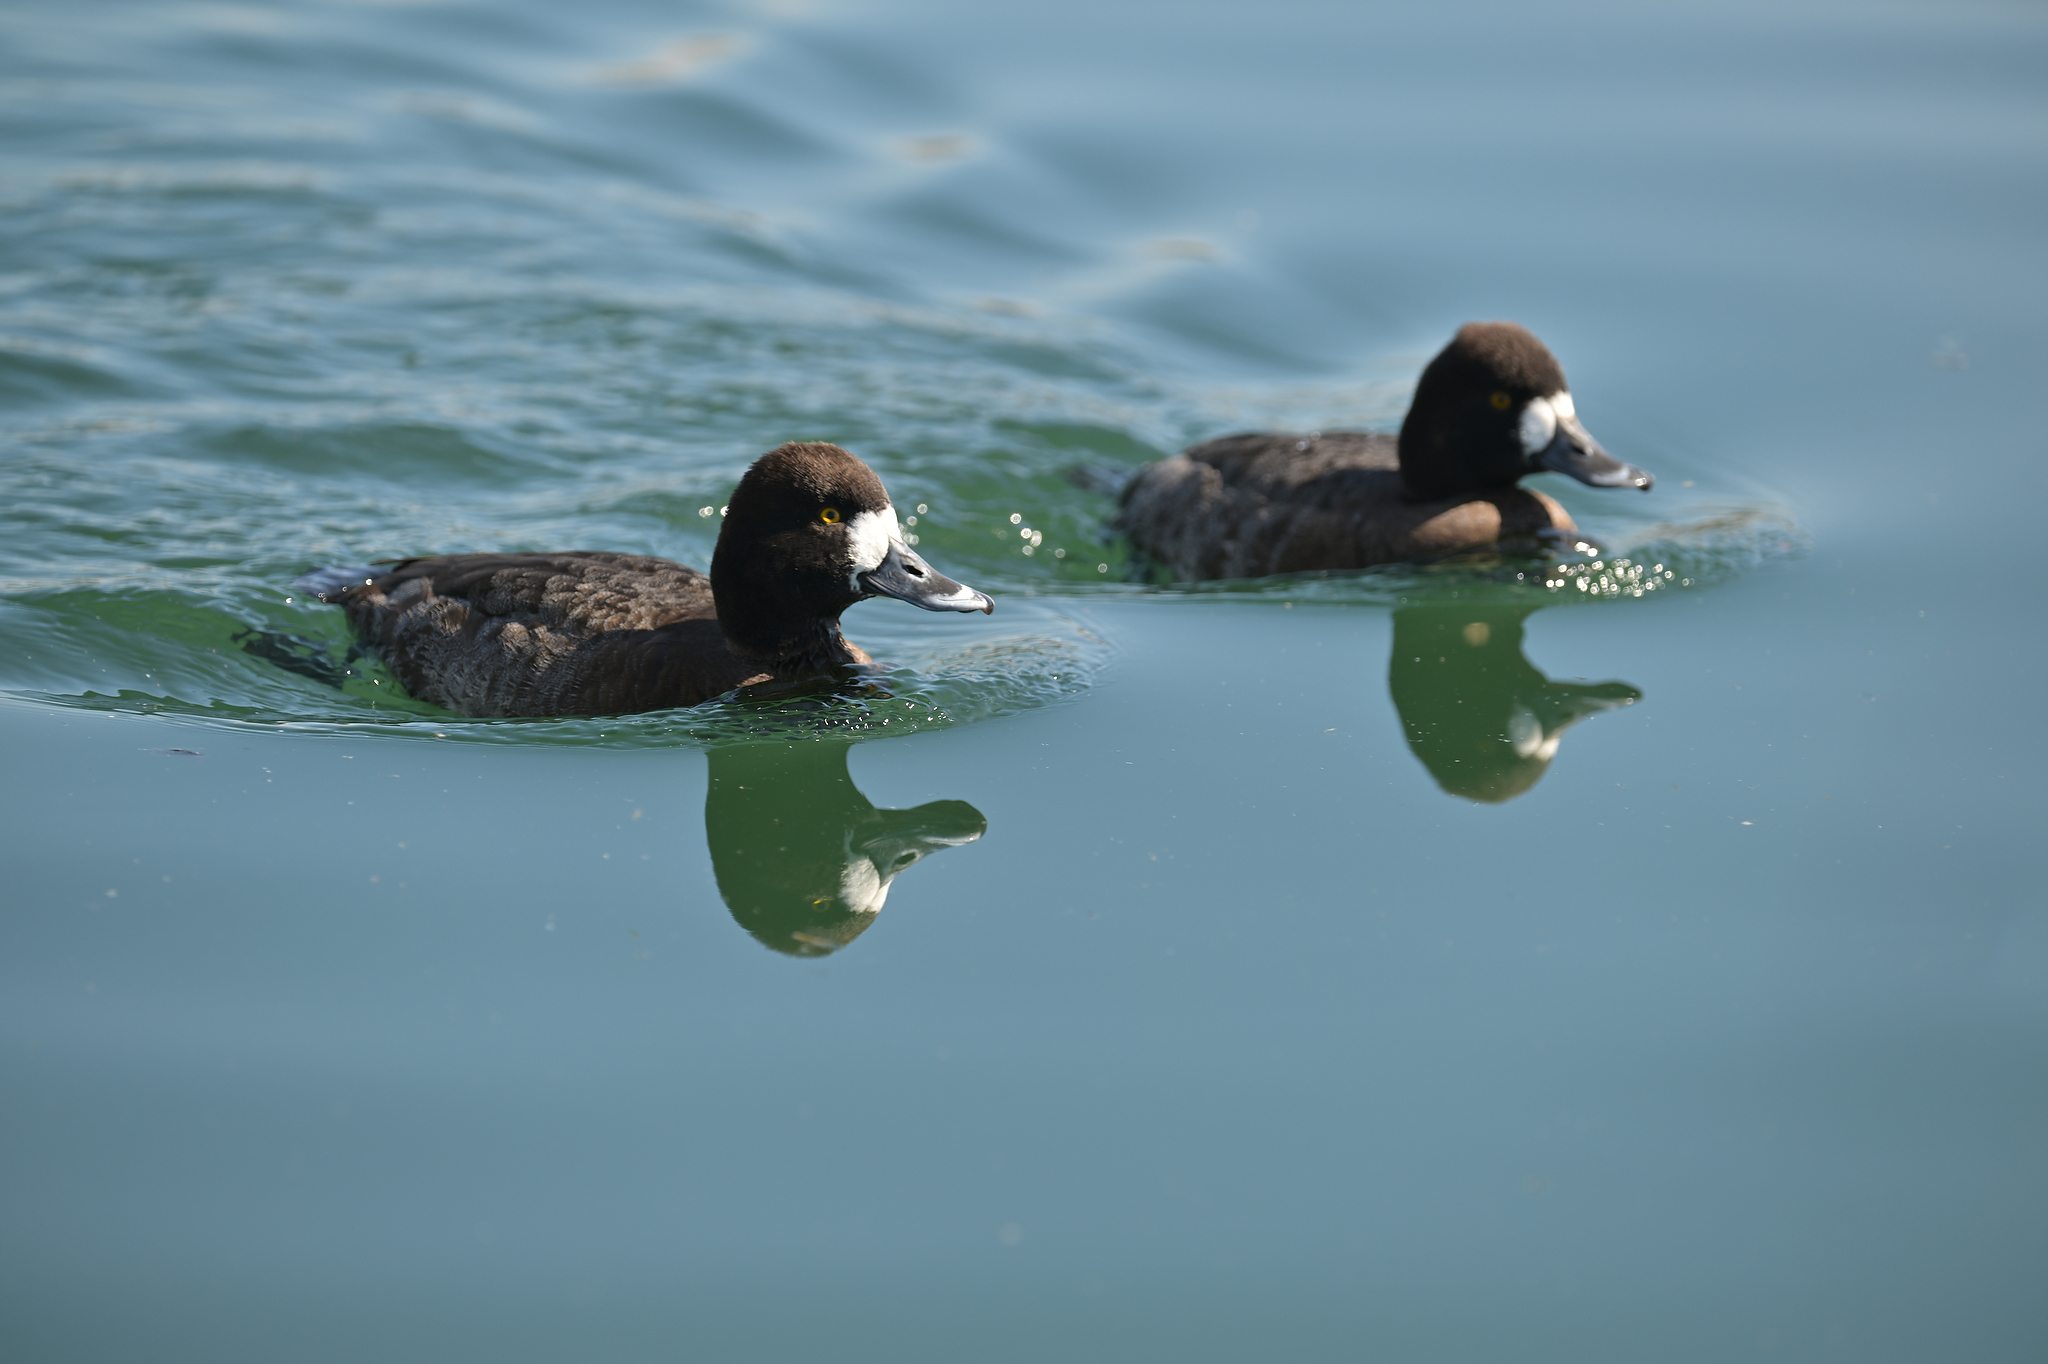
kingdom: Animalia
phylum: Chordata
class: Aves
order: Anseriformes
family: Anatidae
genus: Aythya
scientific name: Aythya affinis
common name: Lesser scaup
